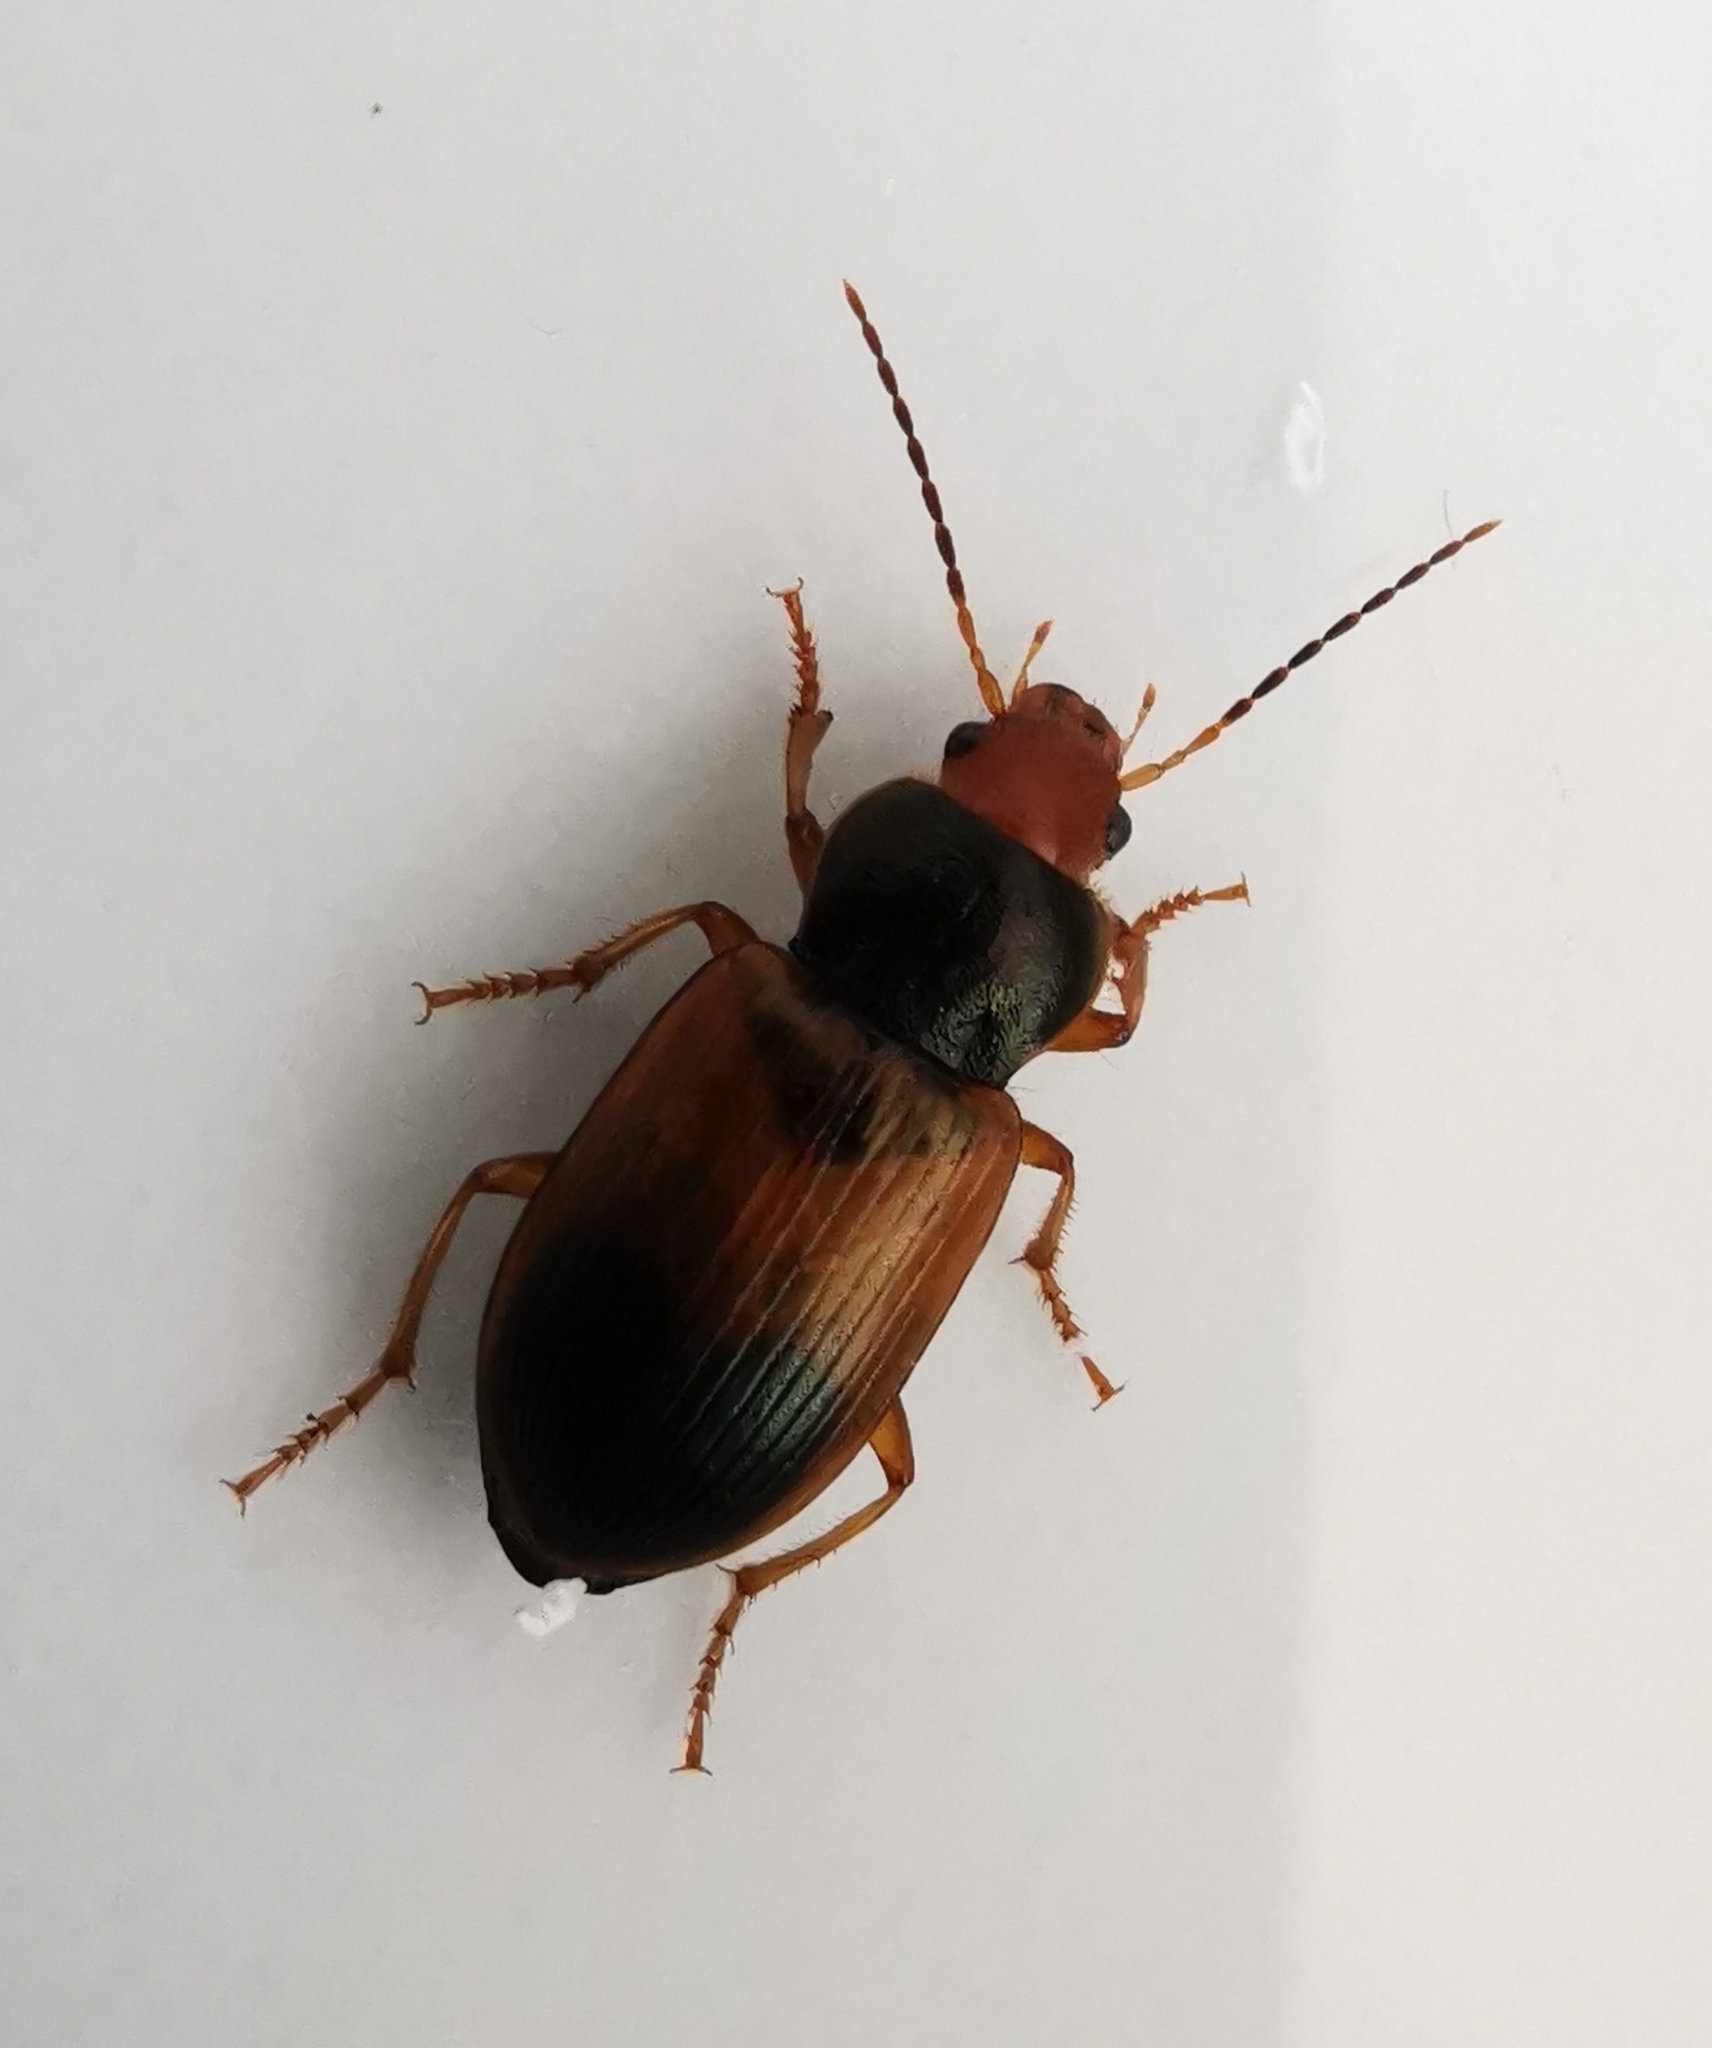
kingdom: Animalia
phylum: Arthropoda
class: Insecta
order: Coleoptera
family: Carabidae
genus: Diachromus
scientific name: Diachromus germanus
